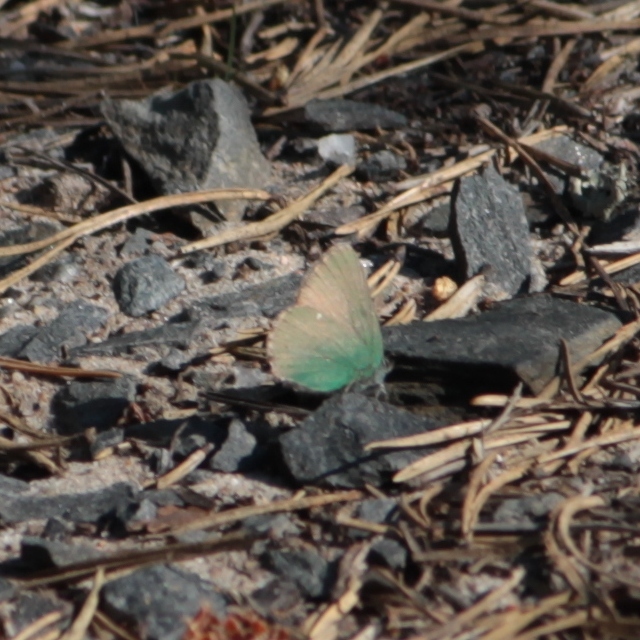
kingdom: Animalia
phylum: Arthropoda
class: Insecta
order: Lepidoptera
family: Lycaenidae
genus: Callophrys
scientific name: Callophrys rubi
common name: Green hairstreak
